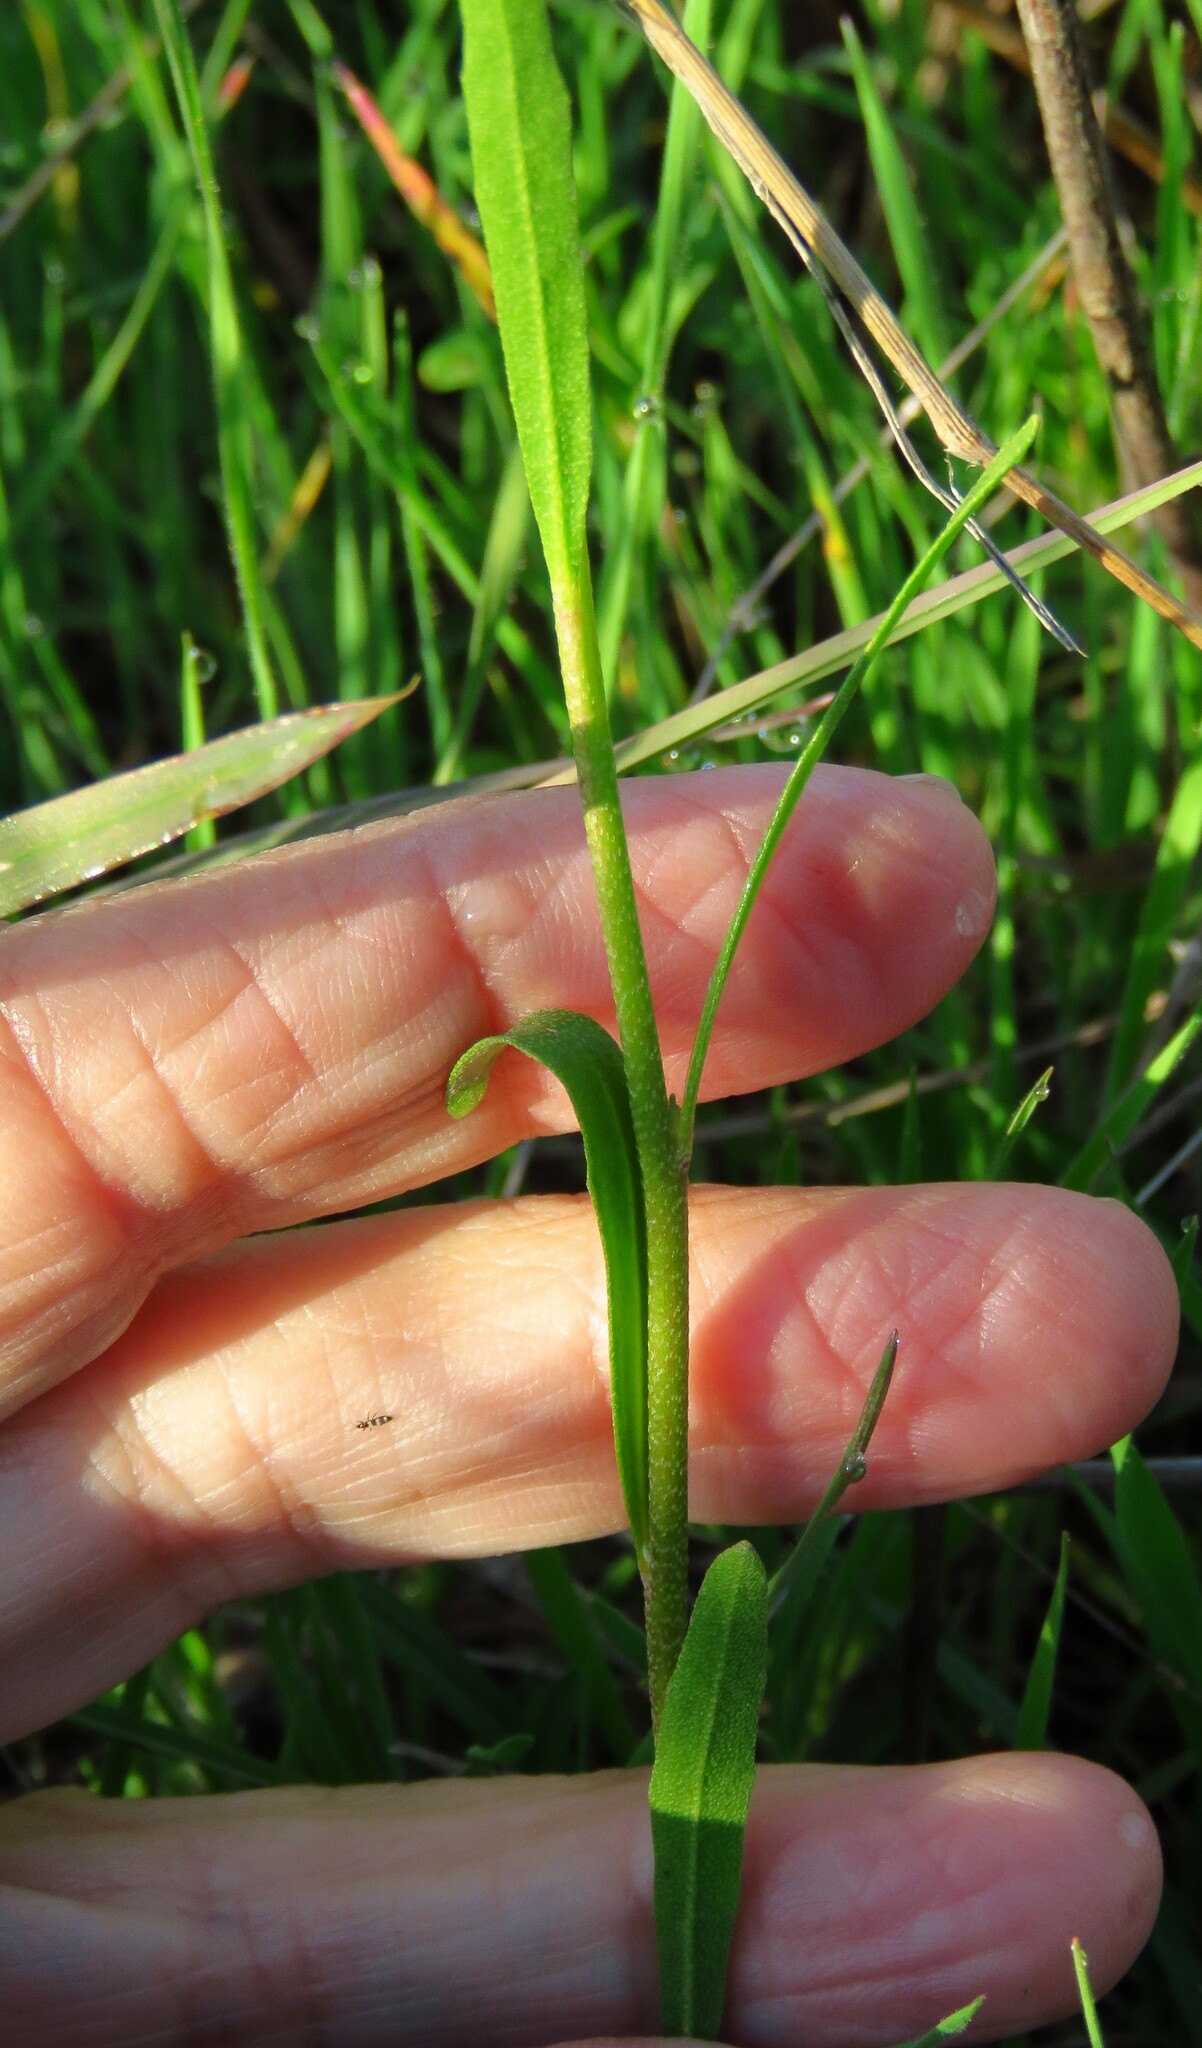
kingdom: Plantae
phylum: Tracheophyta
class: Magnoliopsida
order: Brassicales
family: Brassicaceae
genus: Physaria
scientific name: Physaria gracilis
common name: Spreading bladderpod
